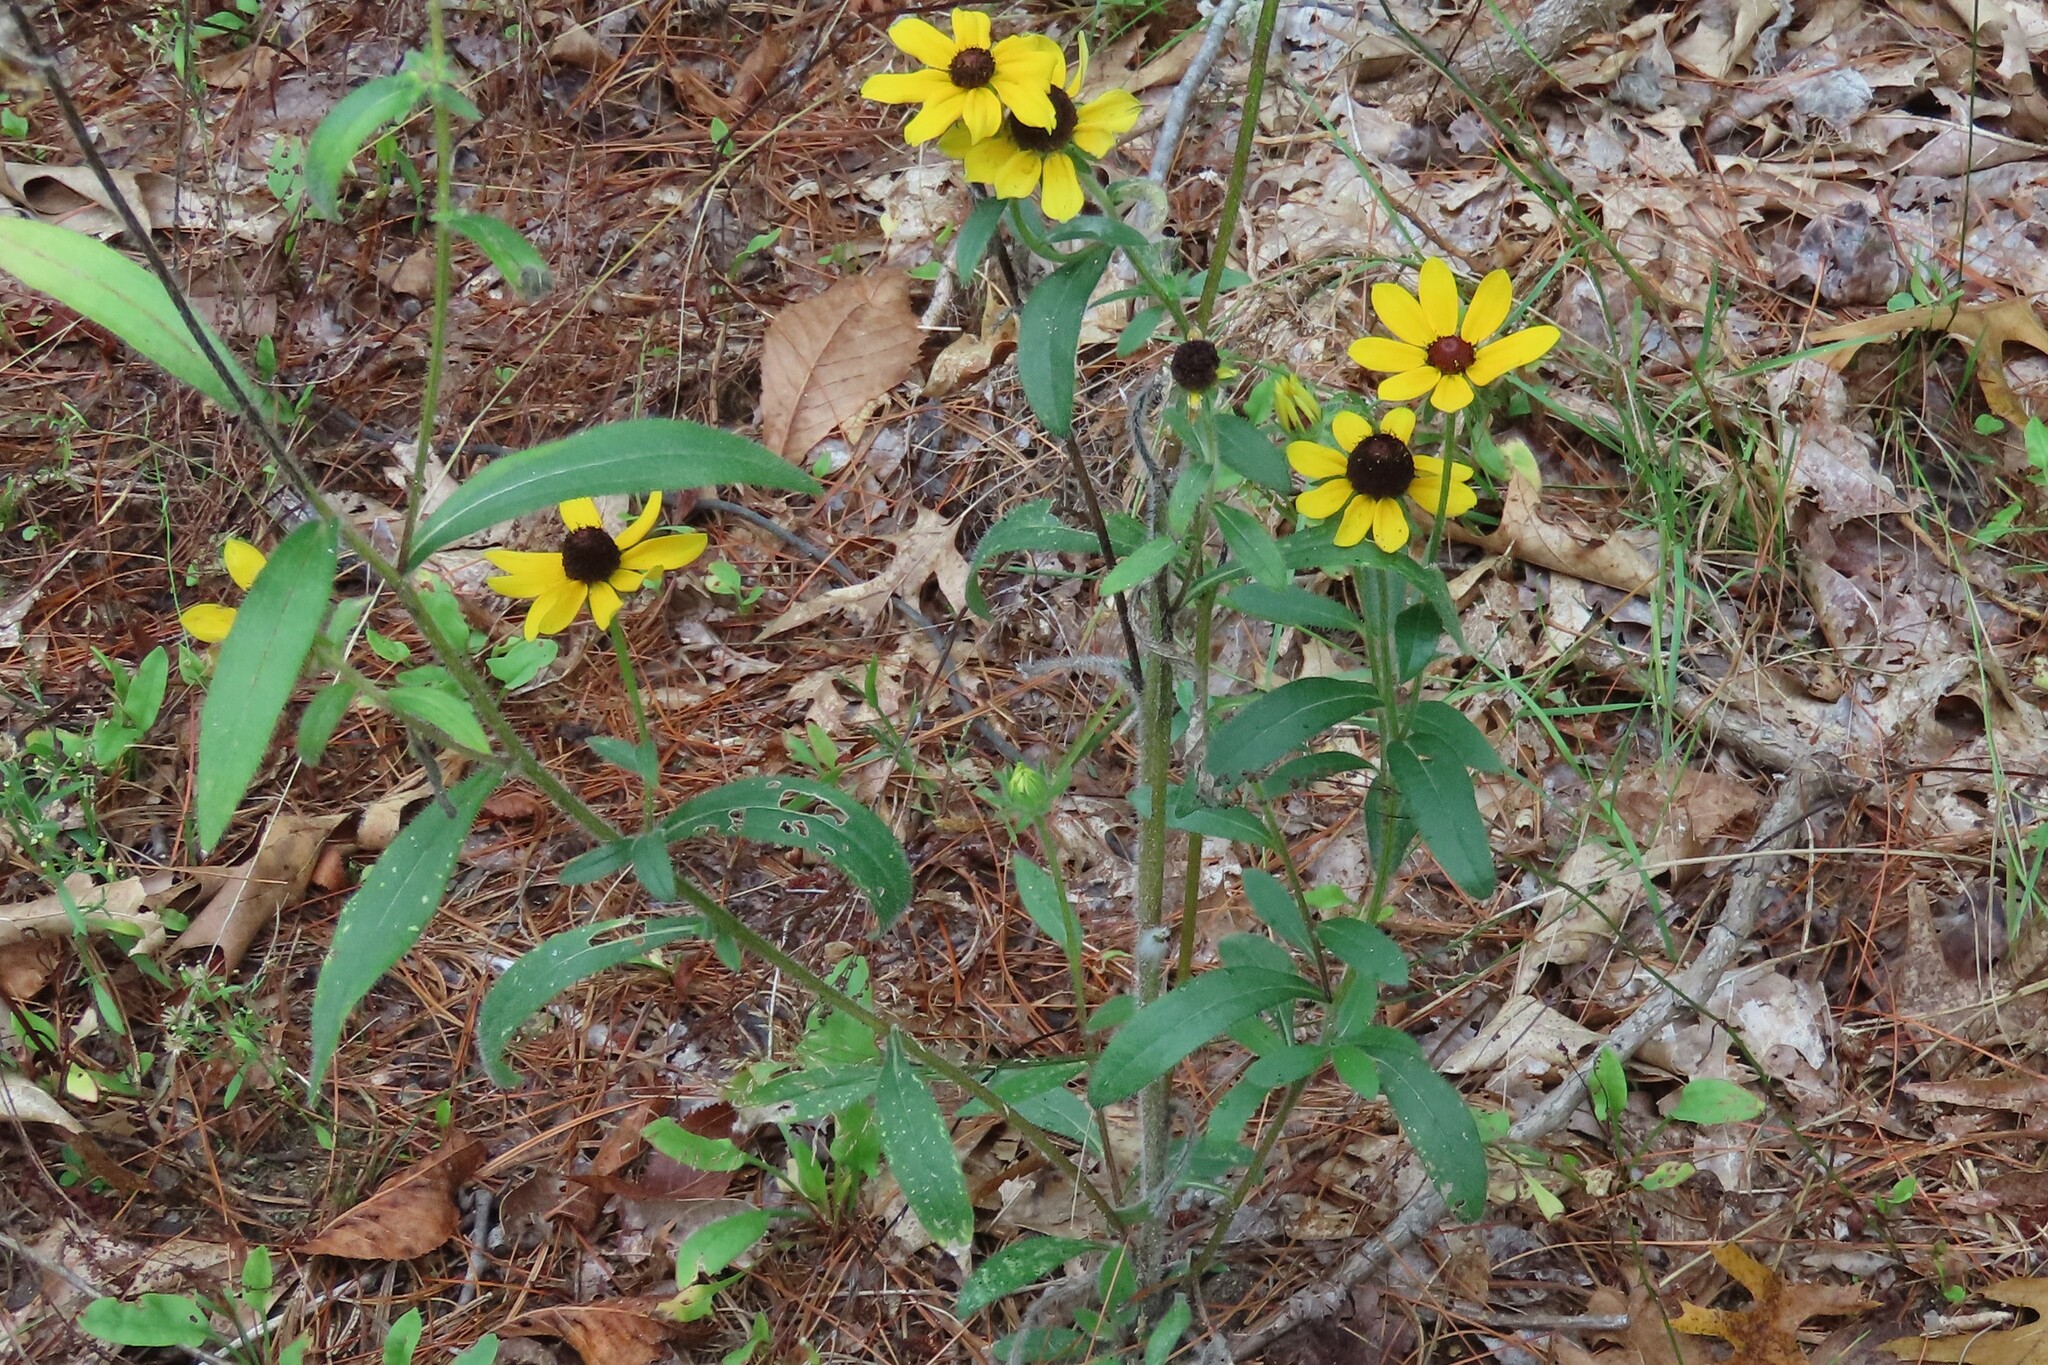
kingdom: Plantae
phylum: Tracheophyta
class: Magnoliopsida
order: Asterales
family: Asteraceae
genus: Rudbeckia
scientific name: Rudbeckia hirta
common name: Black-eyed-susan
